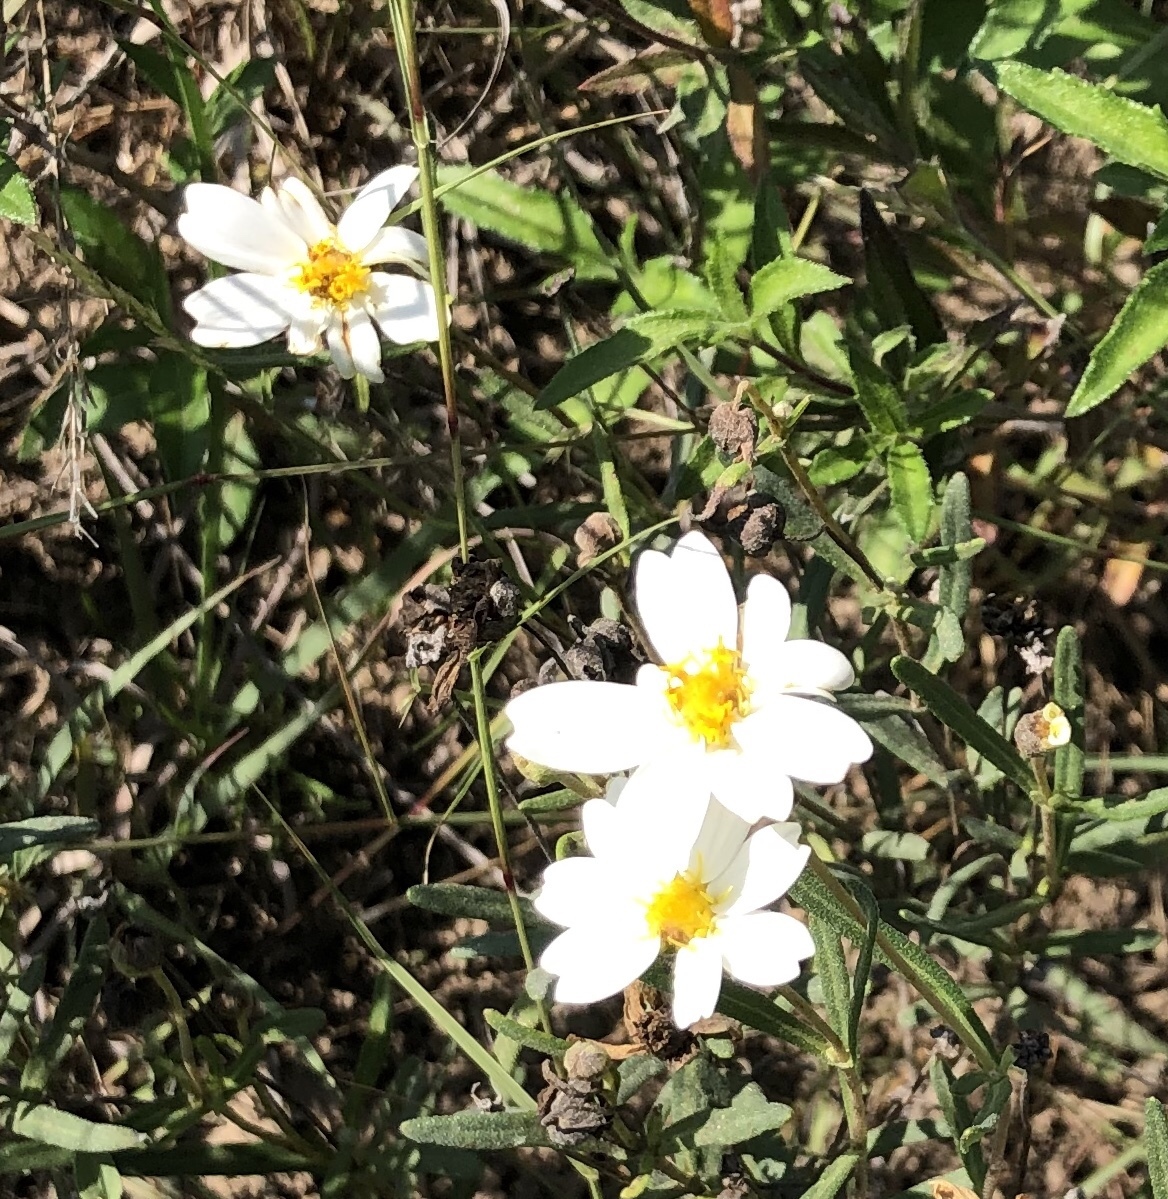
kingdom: Plantae
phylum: Tracheophyta
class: Magnoliopsida
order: Asterales
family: Asteraceae
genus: Melampodium
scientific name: Melampodium leucanthum
